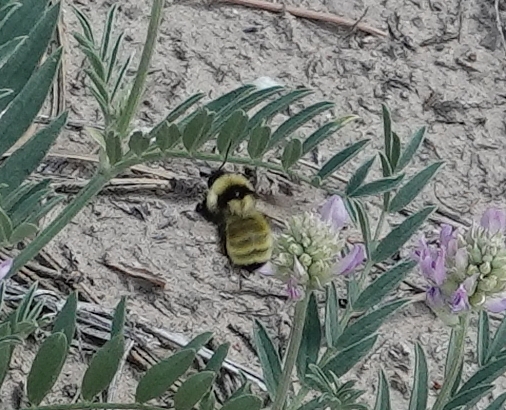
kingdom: Animalia
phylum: Arthropoda
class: Insecta
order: Hymenoptera
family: Apidae
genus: Bombus
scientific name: Bombus fervidus
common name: Yellow bumble bee
